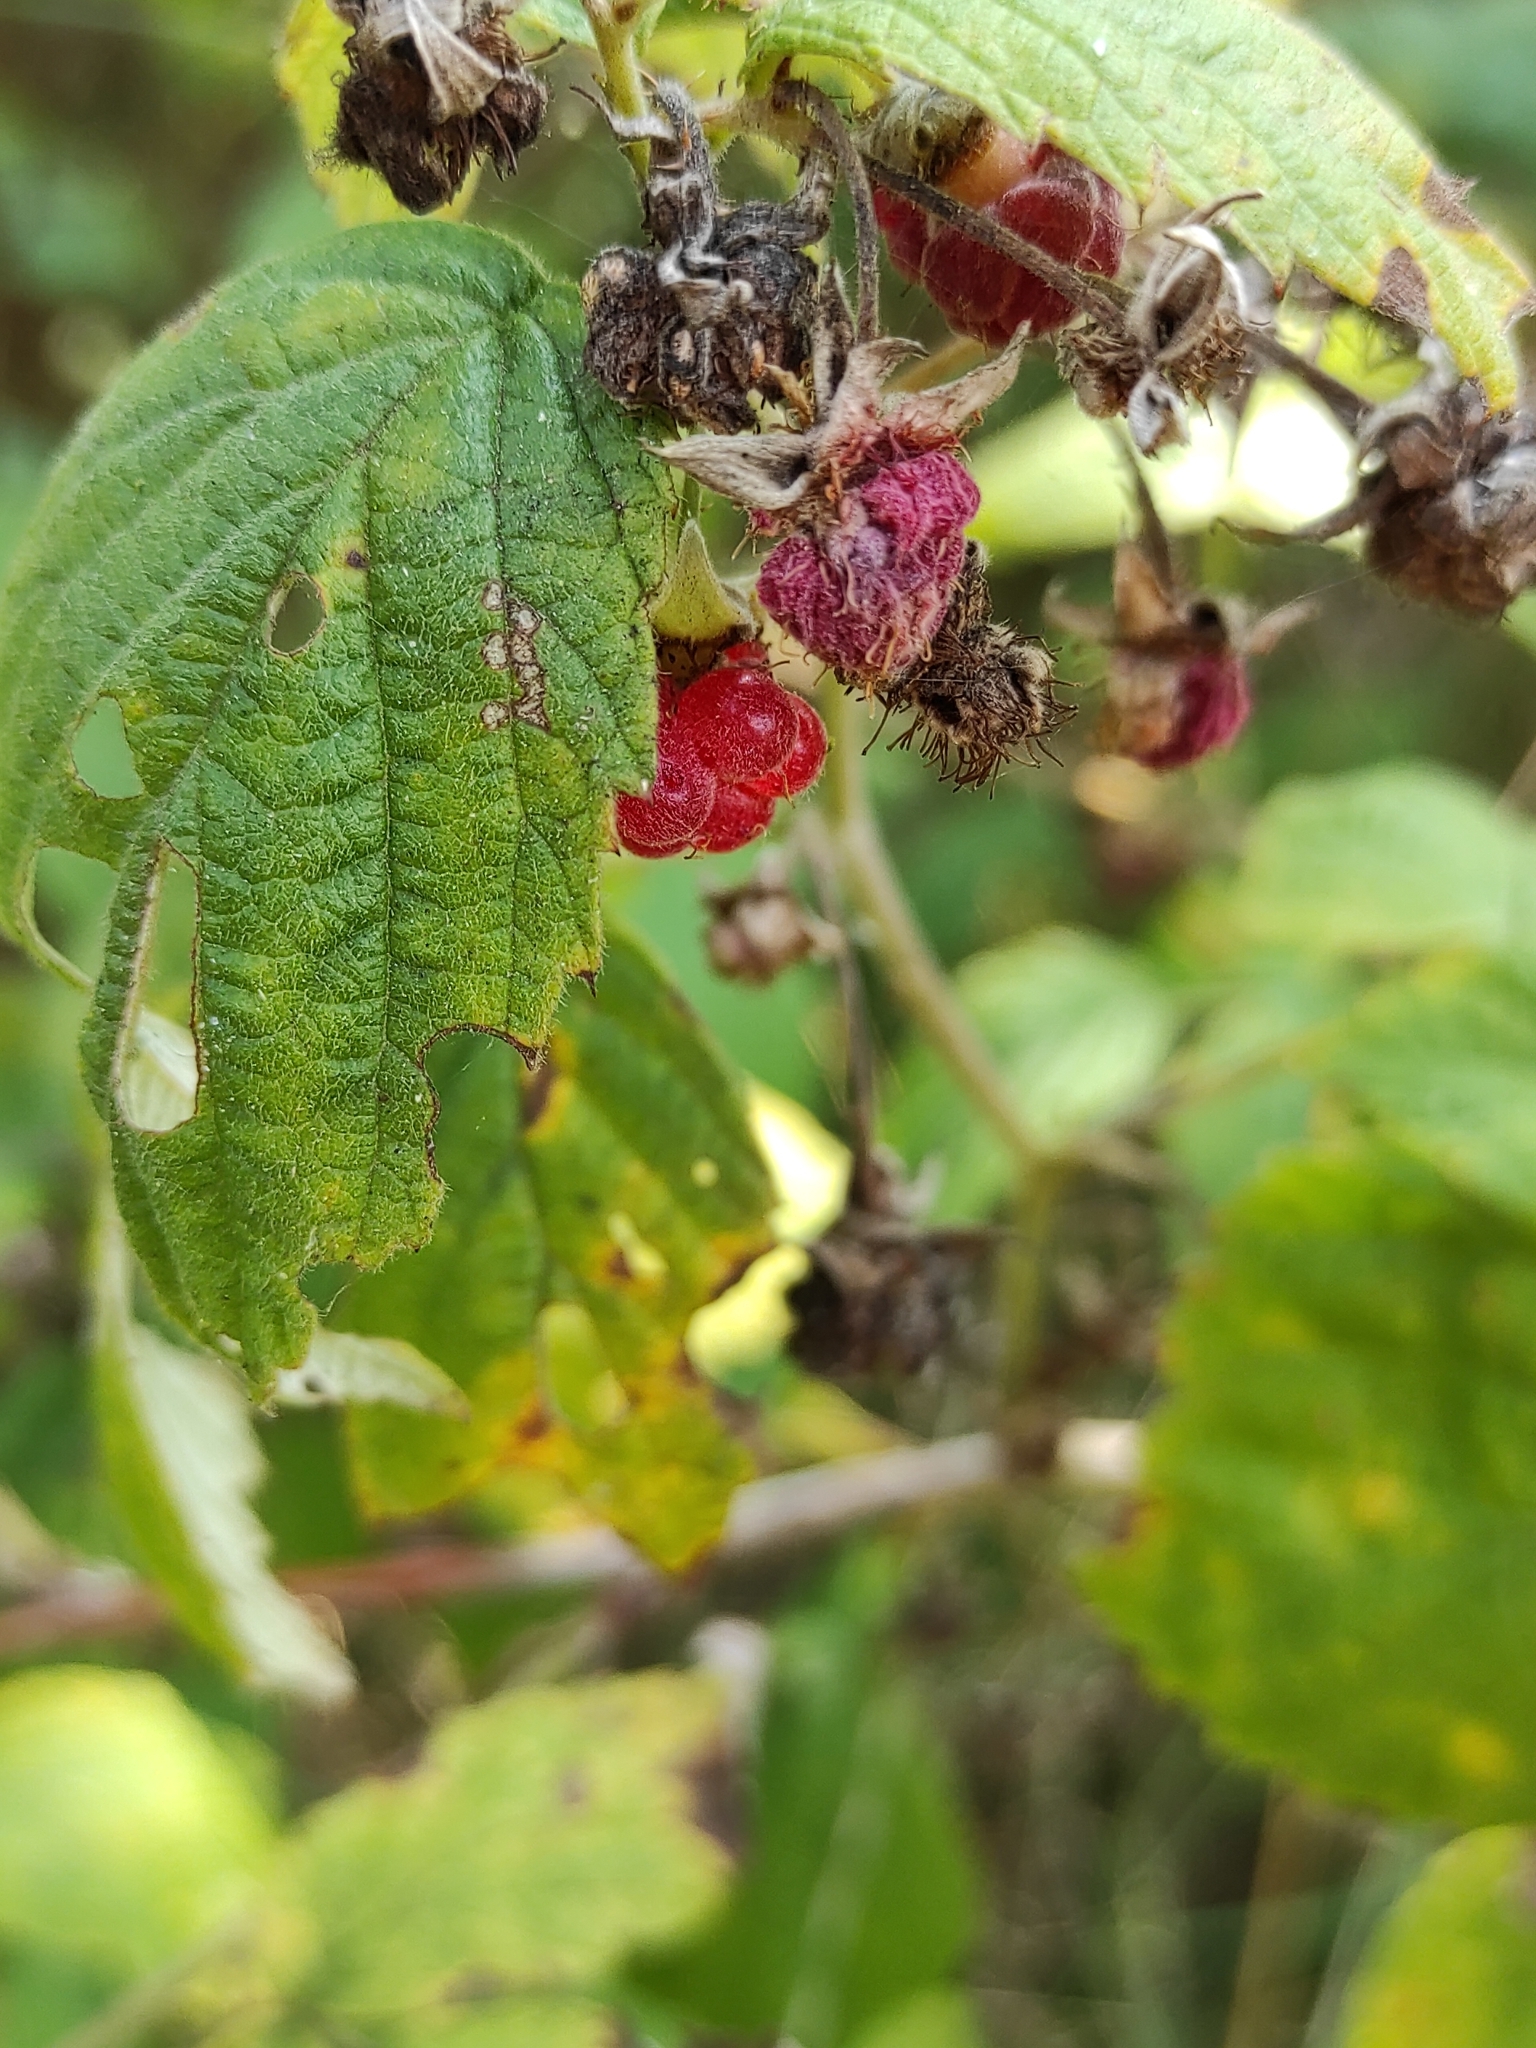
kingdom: Plantae
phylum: Tracheophyta
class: Magnoliopsida
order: Rosales
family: Rosaceae
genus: Rubus
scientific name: Rubus idaeus
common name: Raspberry
